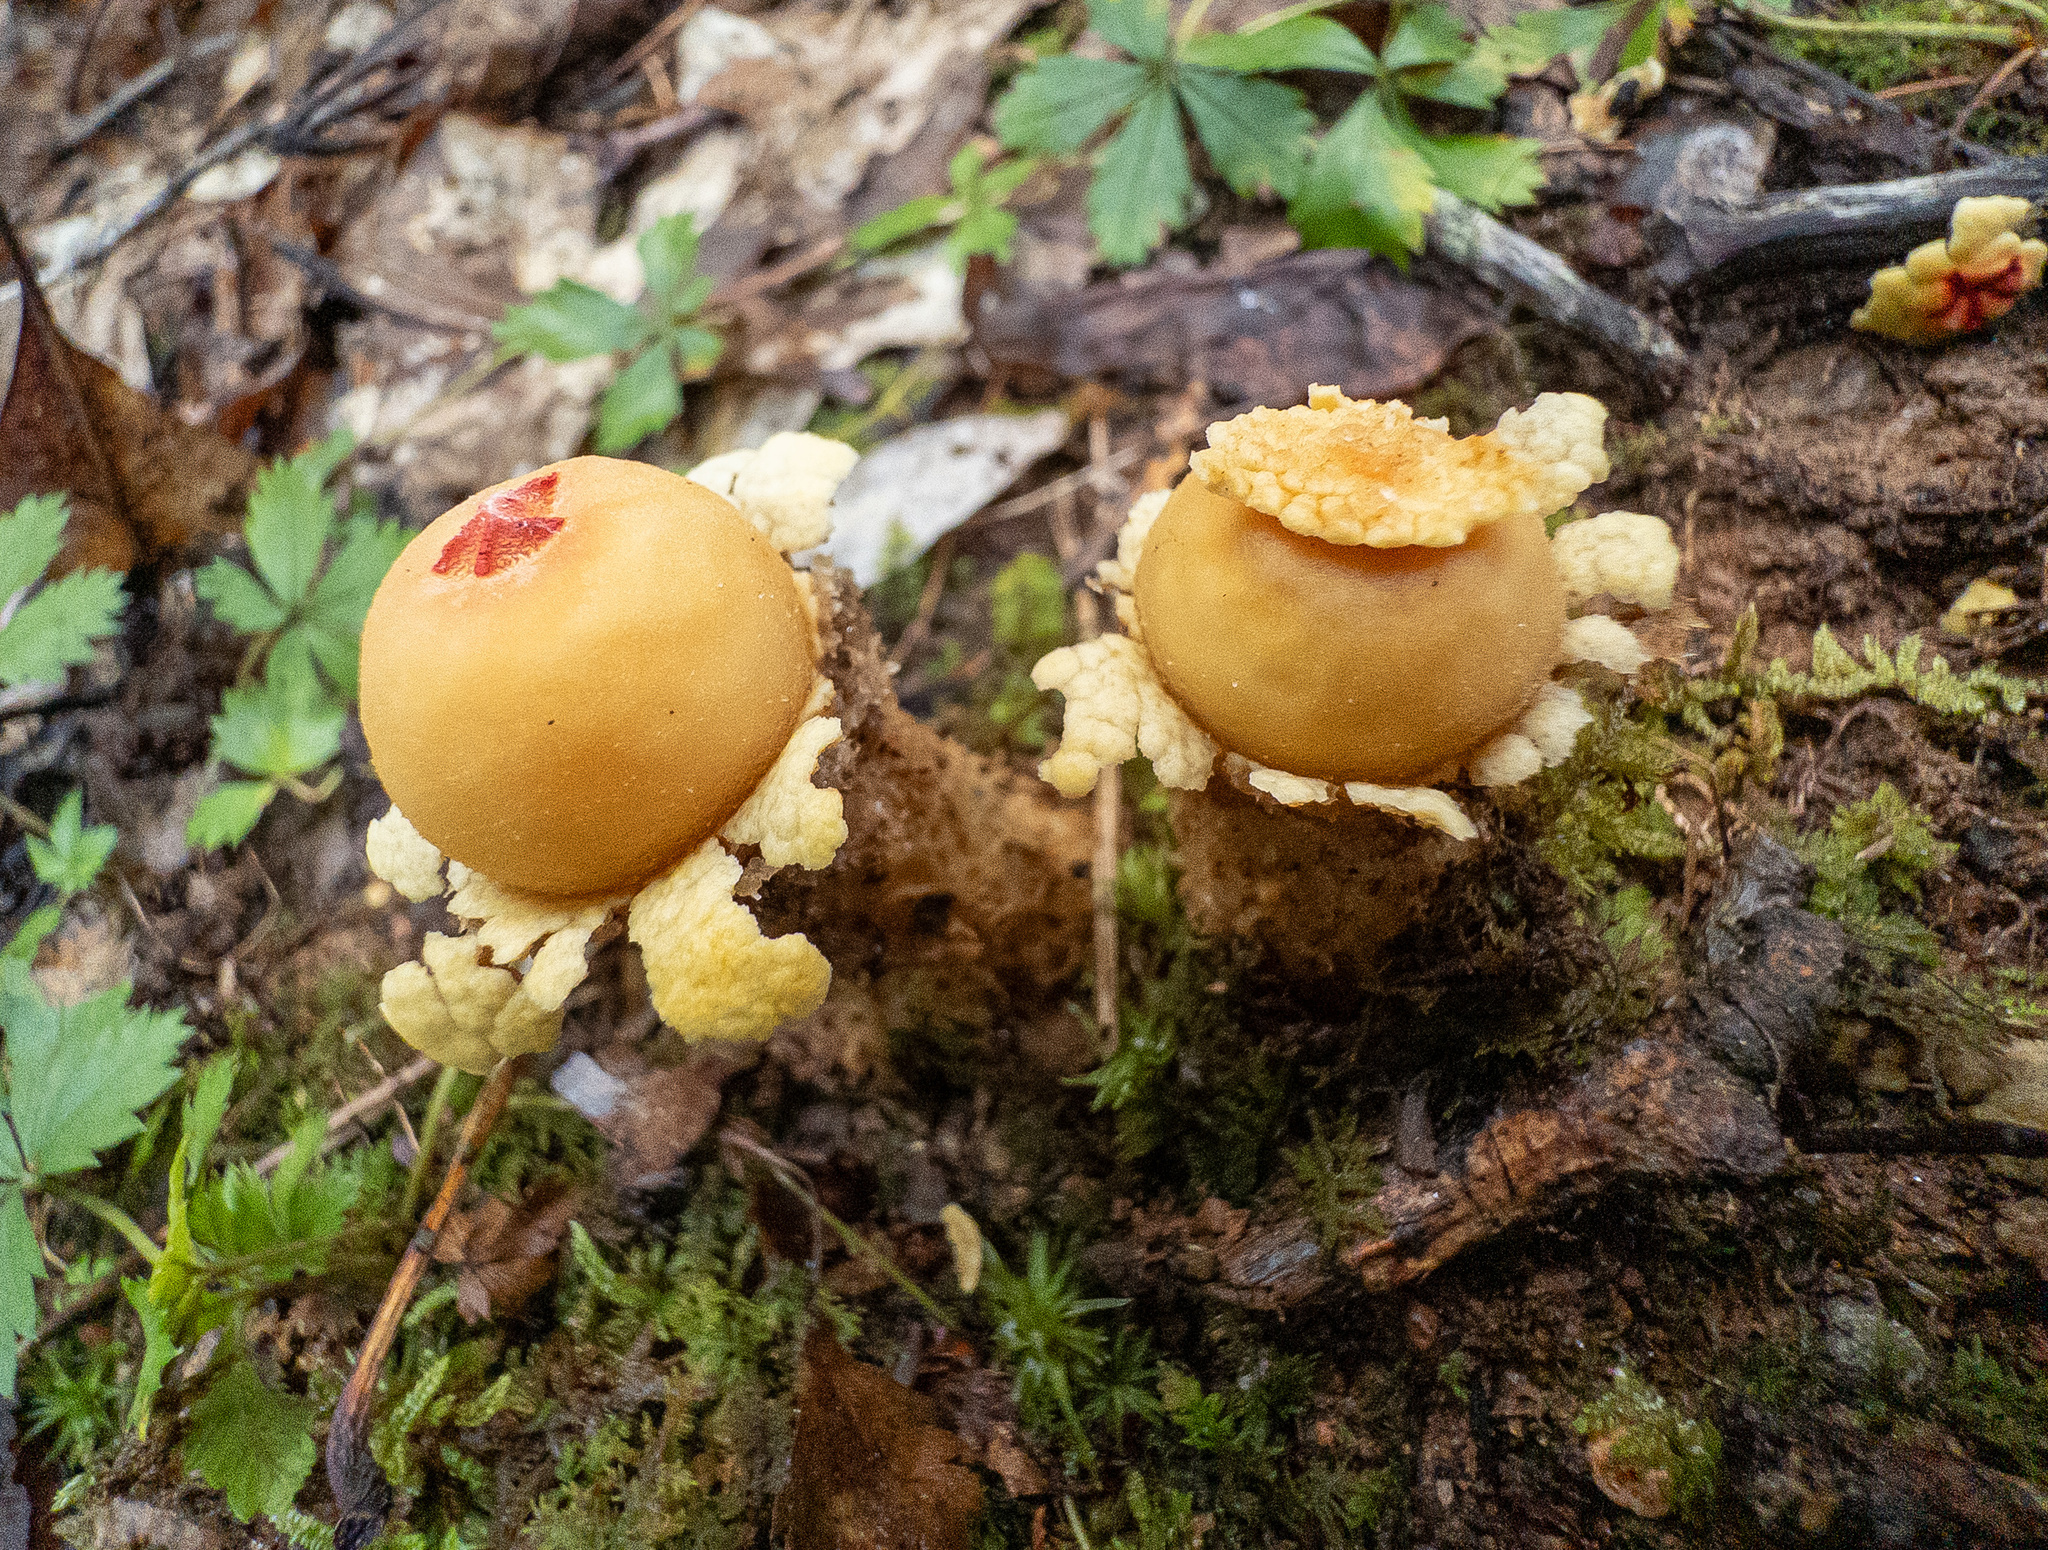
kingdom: Fungi
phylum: Basidiomycota
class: Agaricomycetes
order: Boletales
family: Calostomataceae
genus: Calostoma
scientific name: Calostoma lutescens
